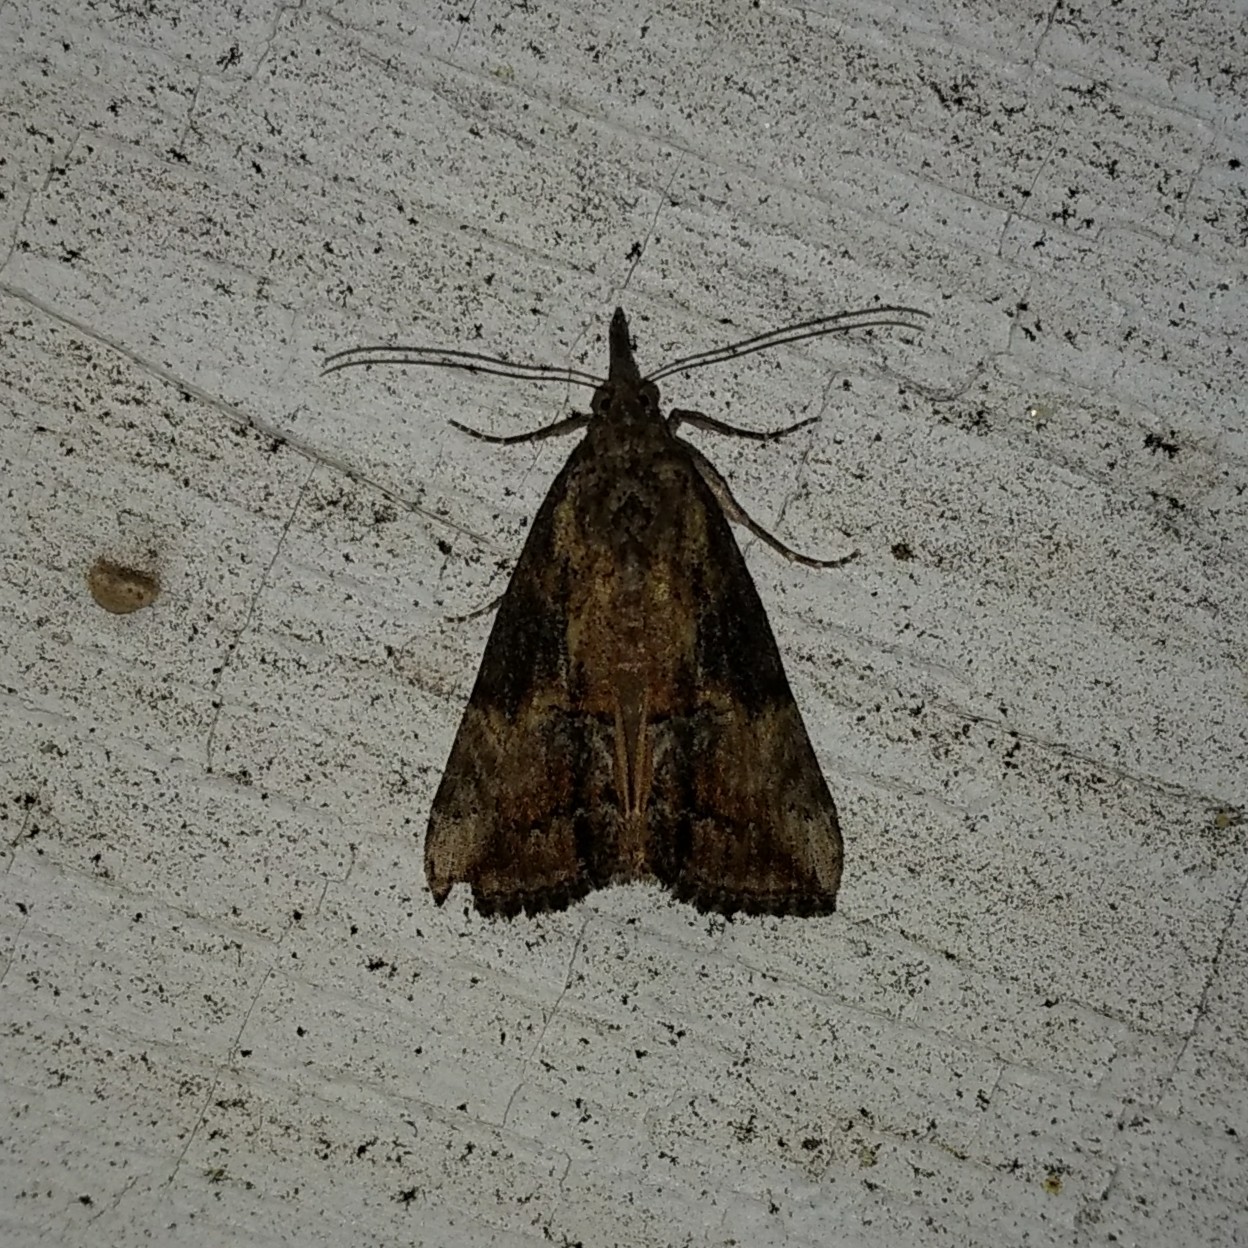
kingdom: Animalia
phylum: Arthropoda
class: Insecta
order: Lepidoptera
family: Erebidae
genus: Hypena
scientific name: Hypena scabra
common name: Green cloverworm
